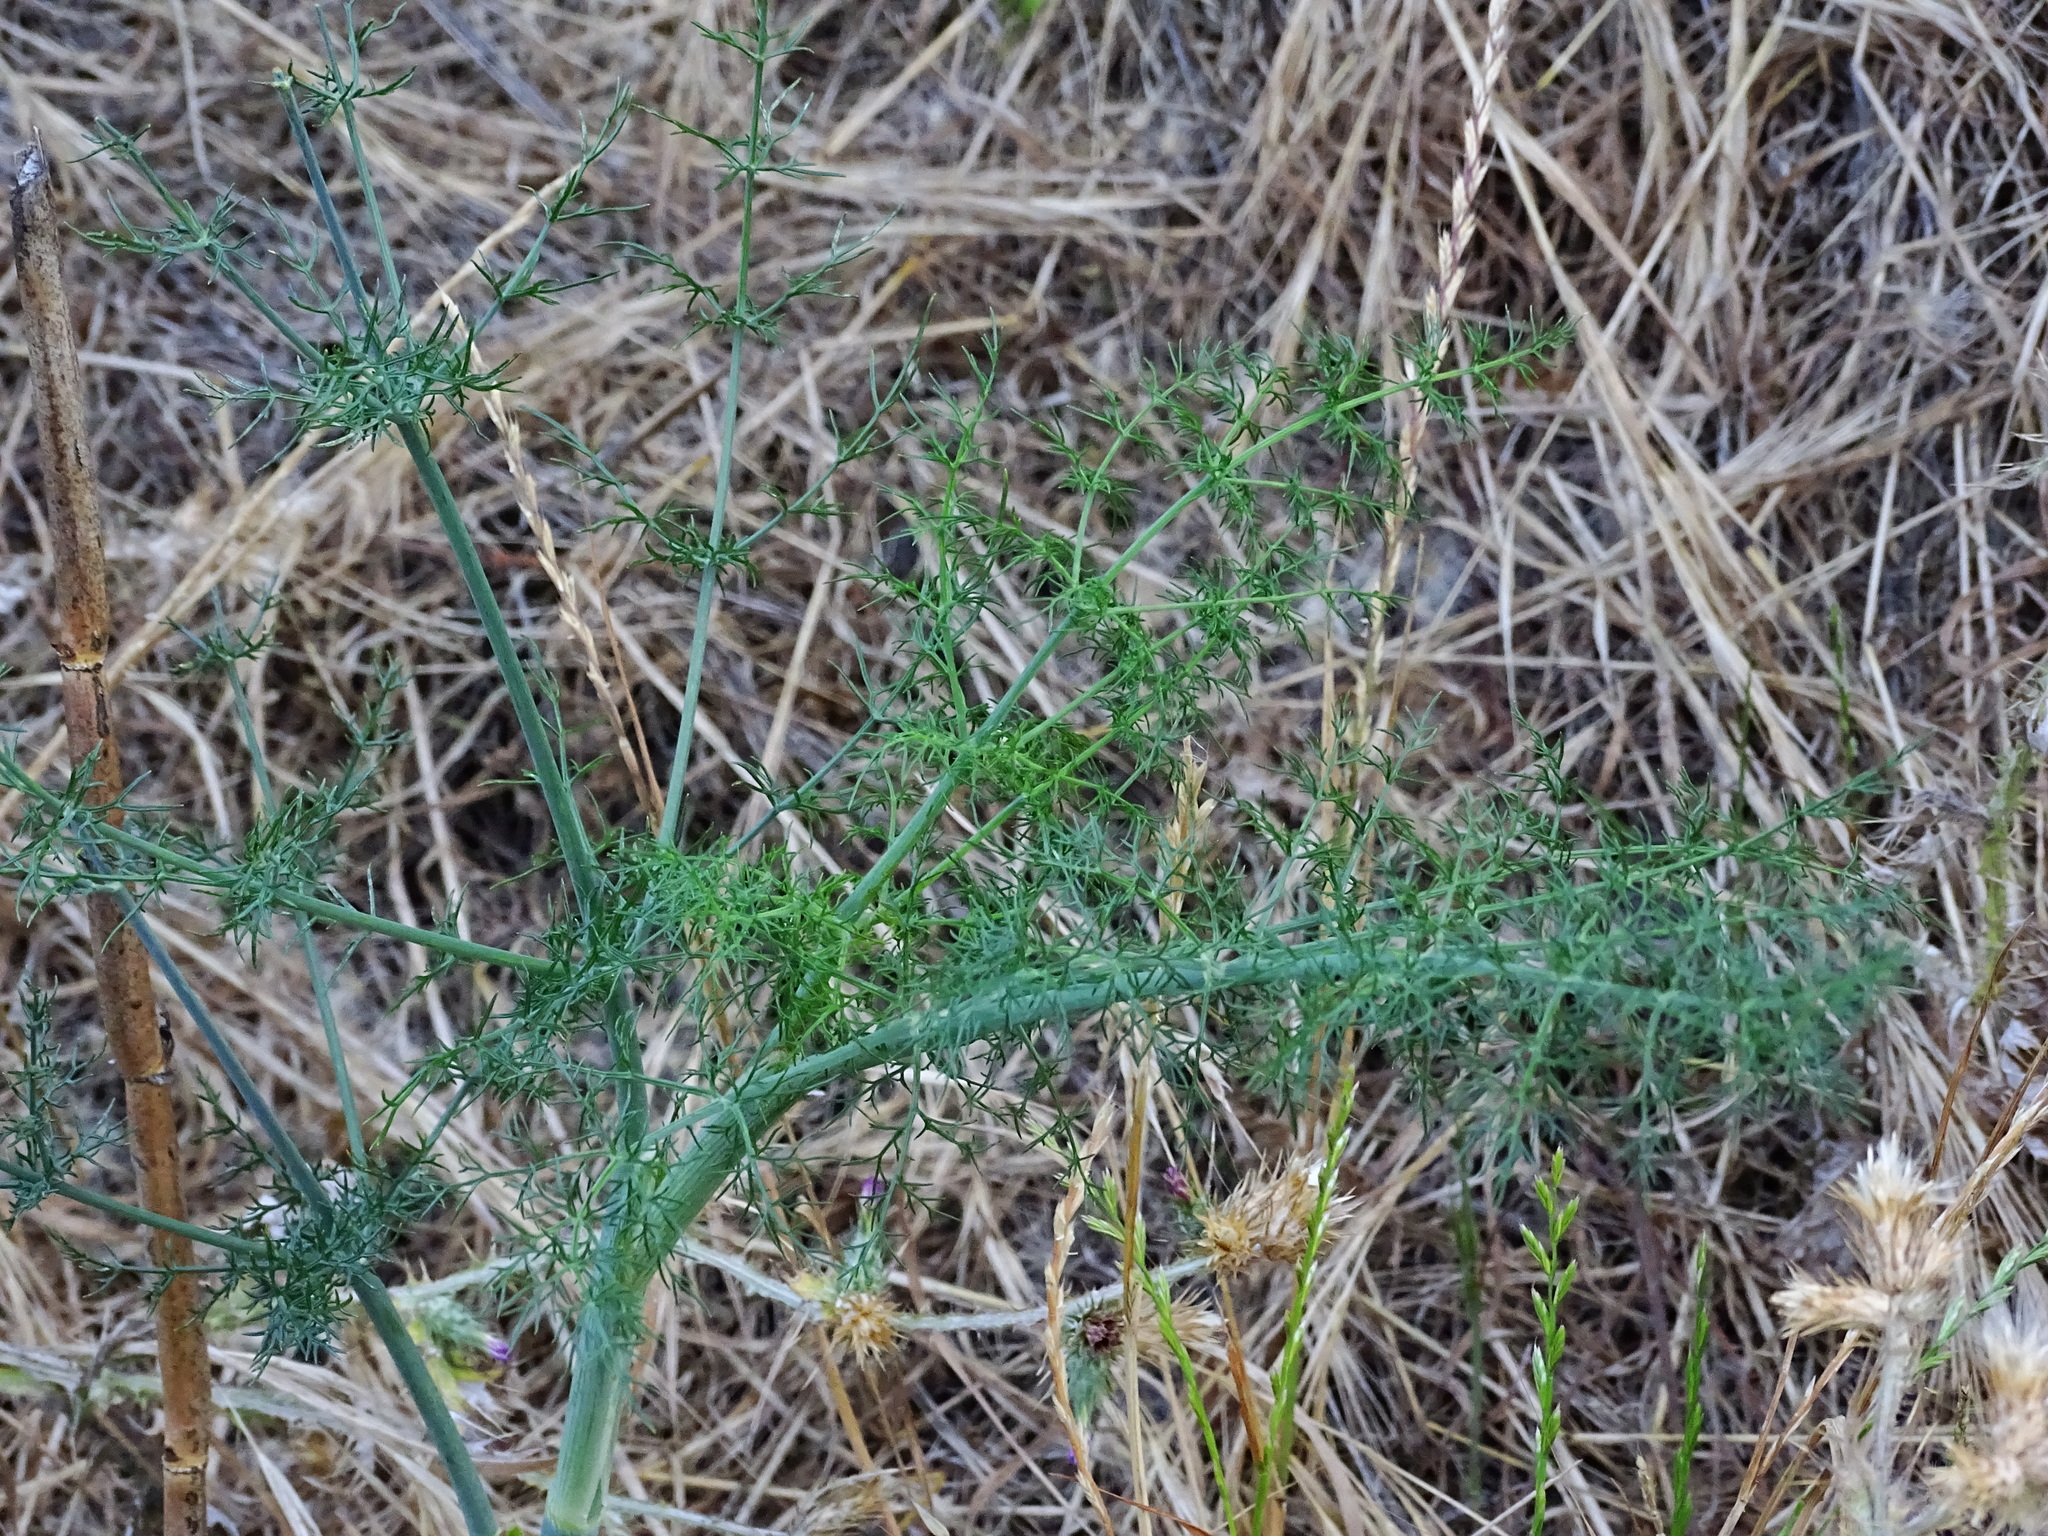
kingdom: Plantae
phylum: Tracheophyta
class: Magnoliopsida
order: Apiales
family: Apiaceae
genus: Foeniculum
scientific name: Foeniculum vulgare
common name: Fennel
